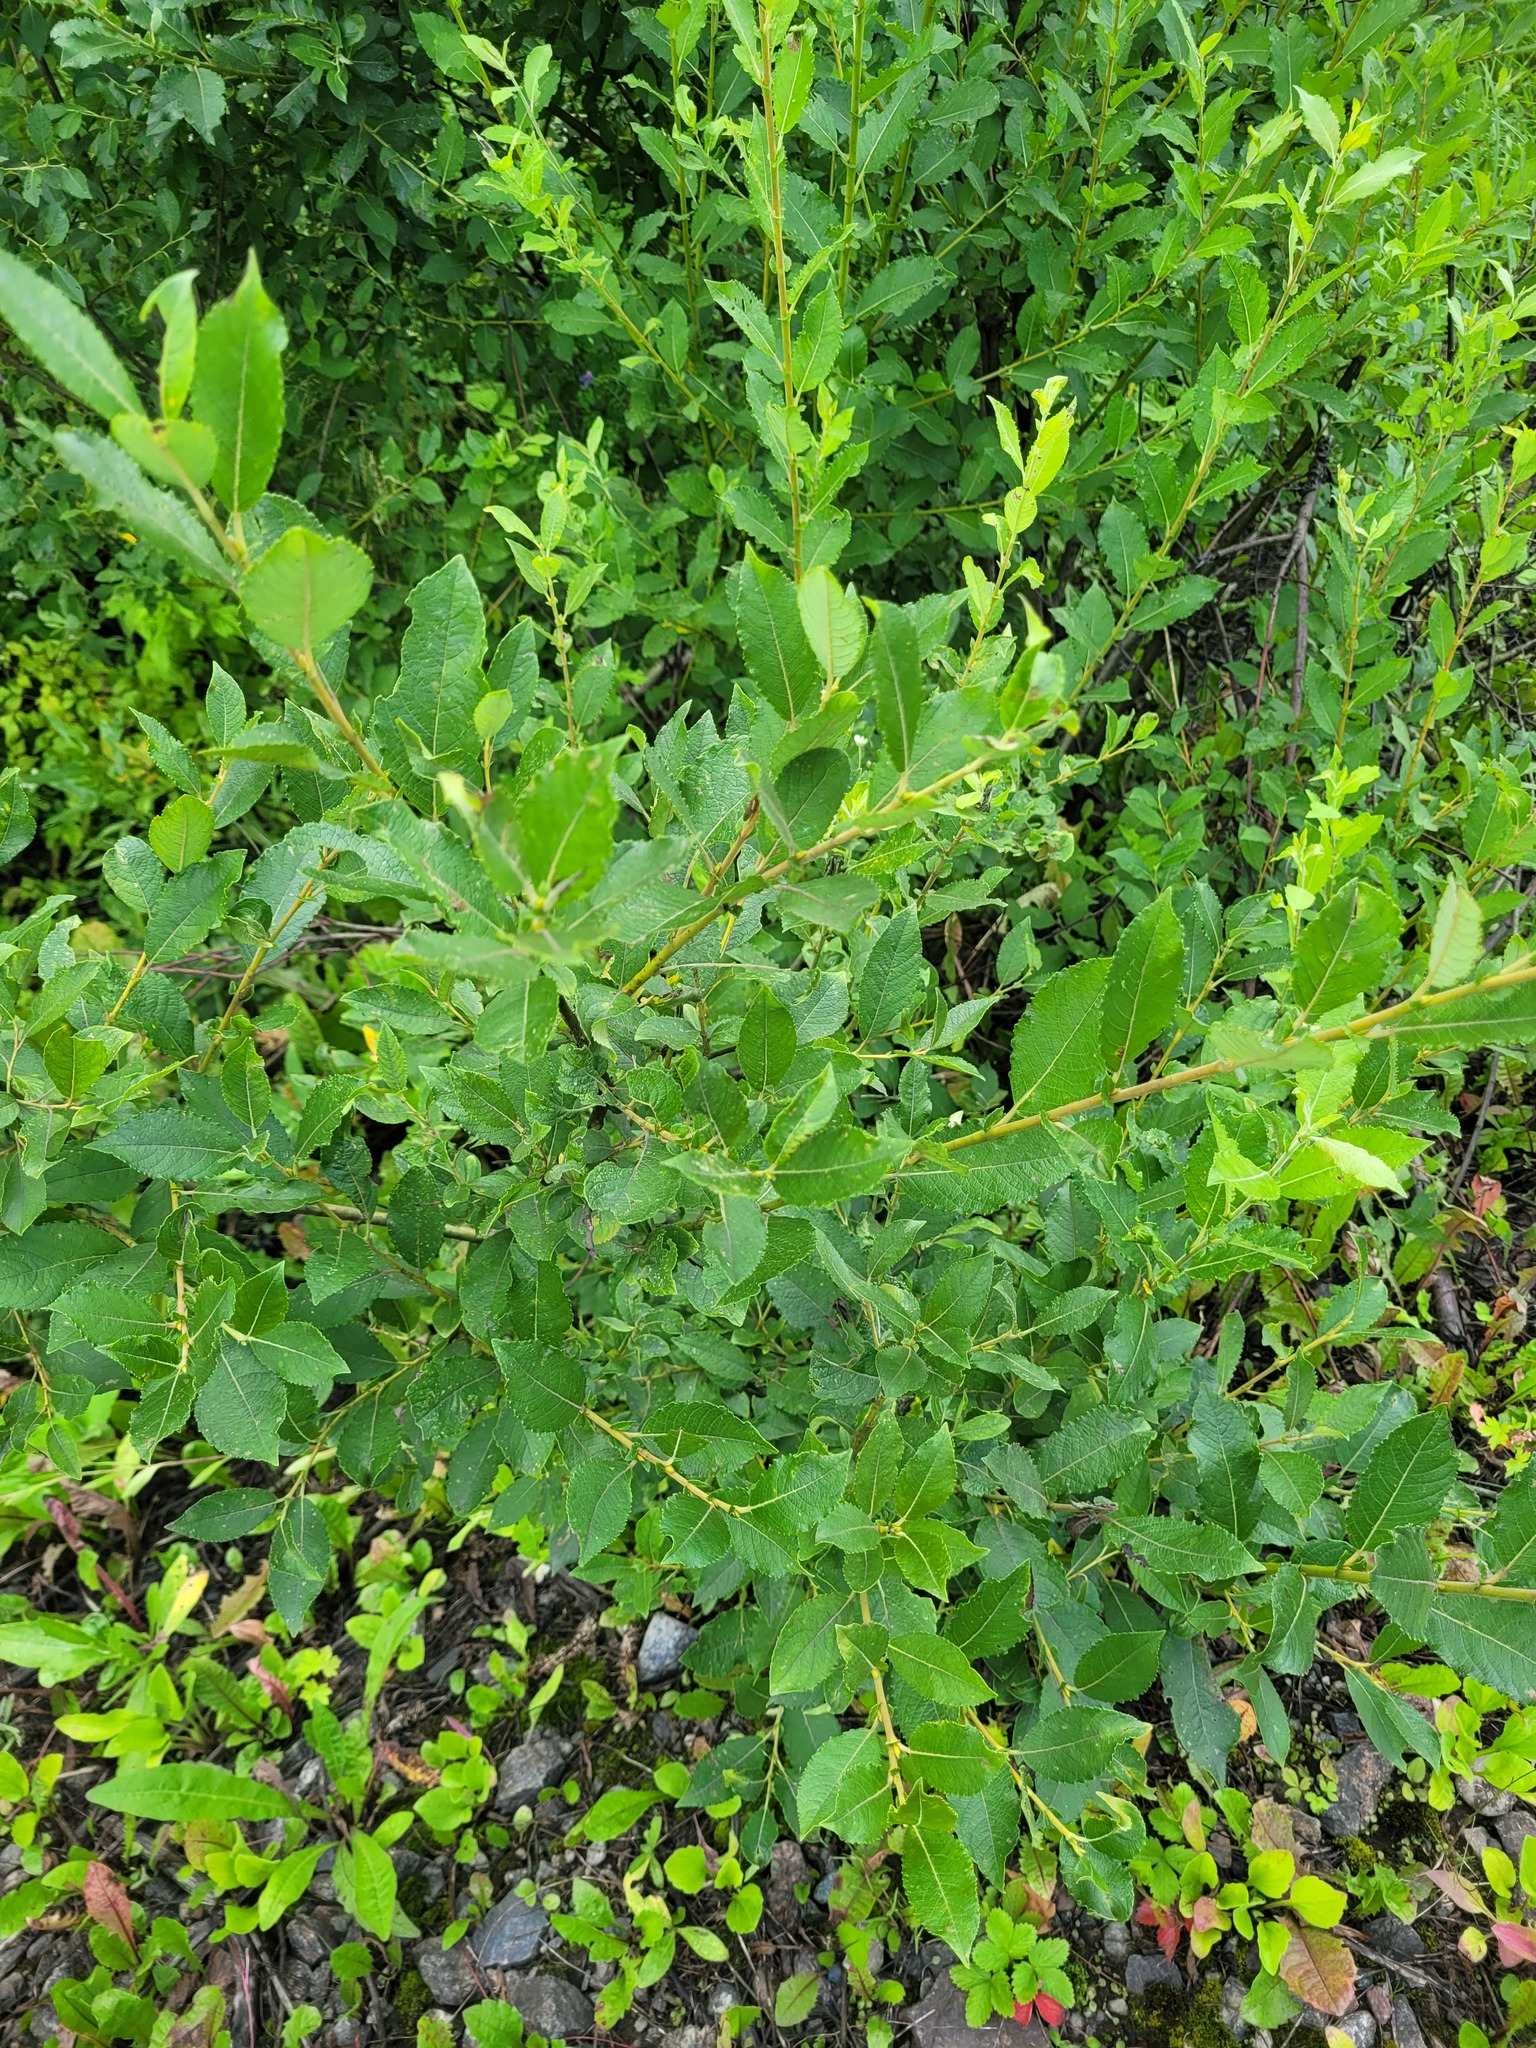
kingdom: Plantae
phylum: Tracheophyta
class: Magnoliopsida
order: Malpighiales
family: Salicaceae
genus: Salix
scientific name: Salix myrsinifolia
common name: Dark-leaved willow
